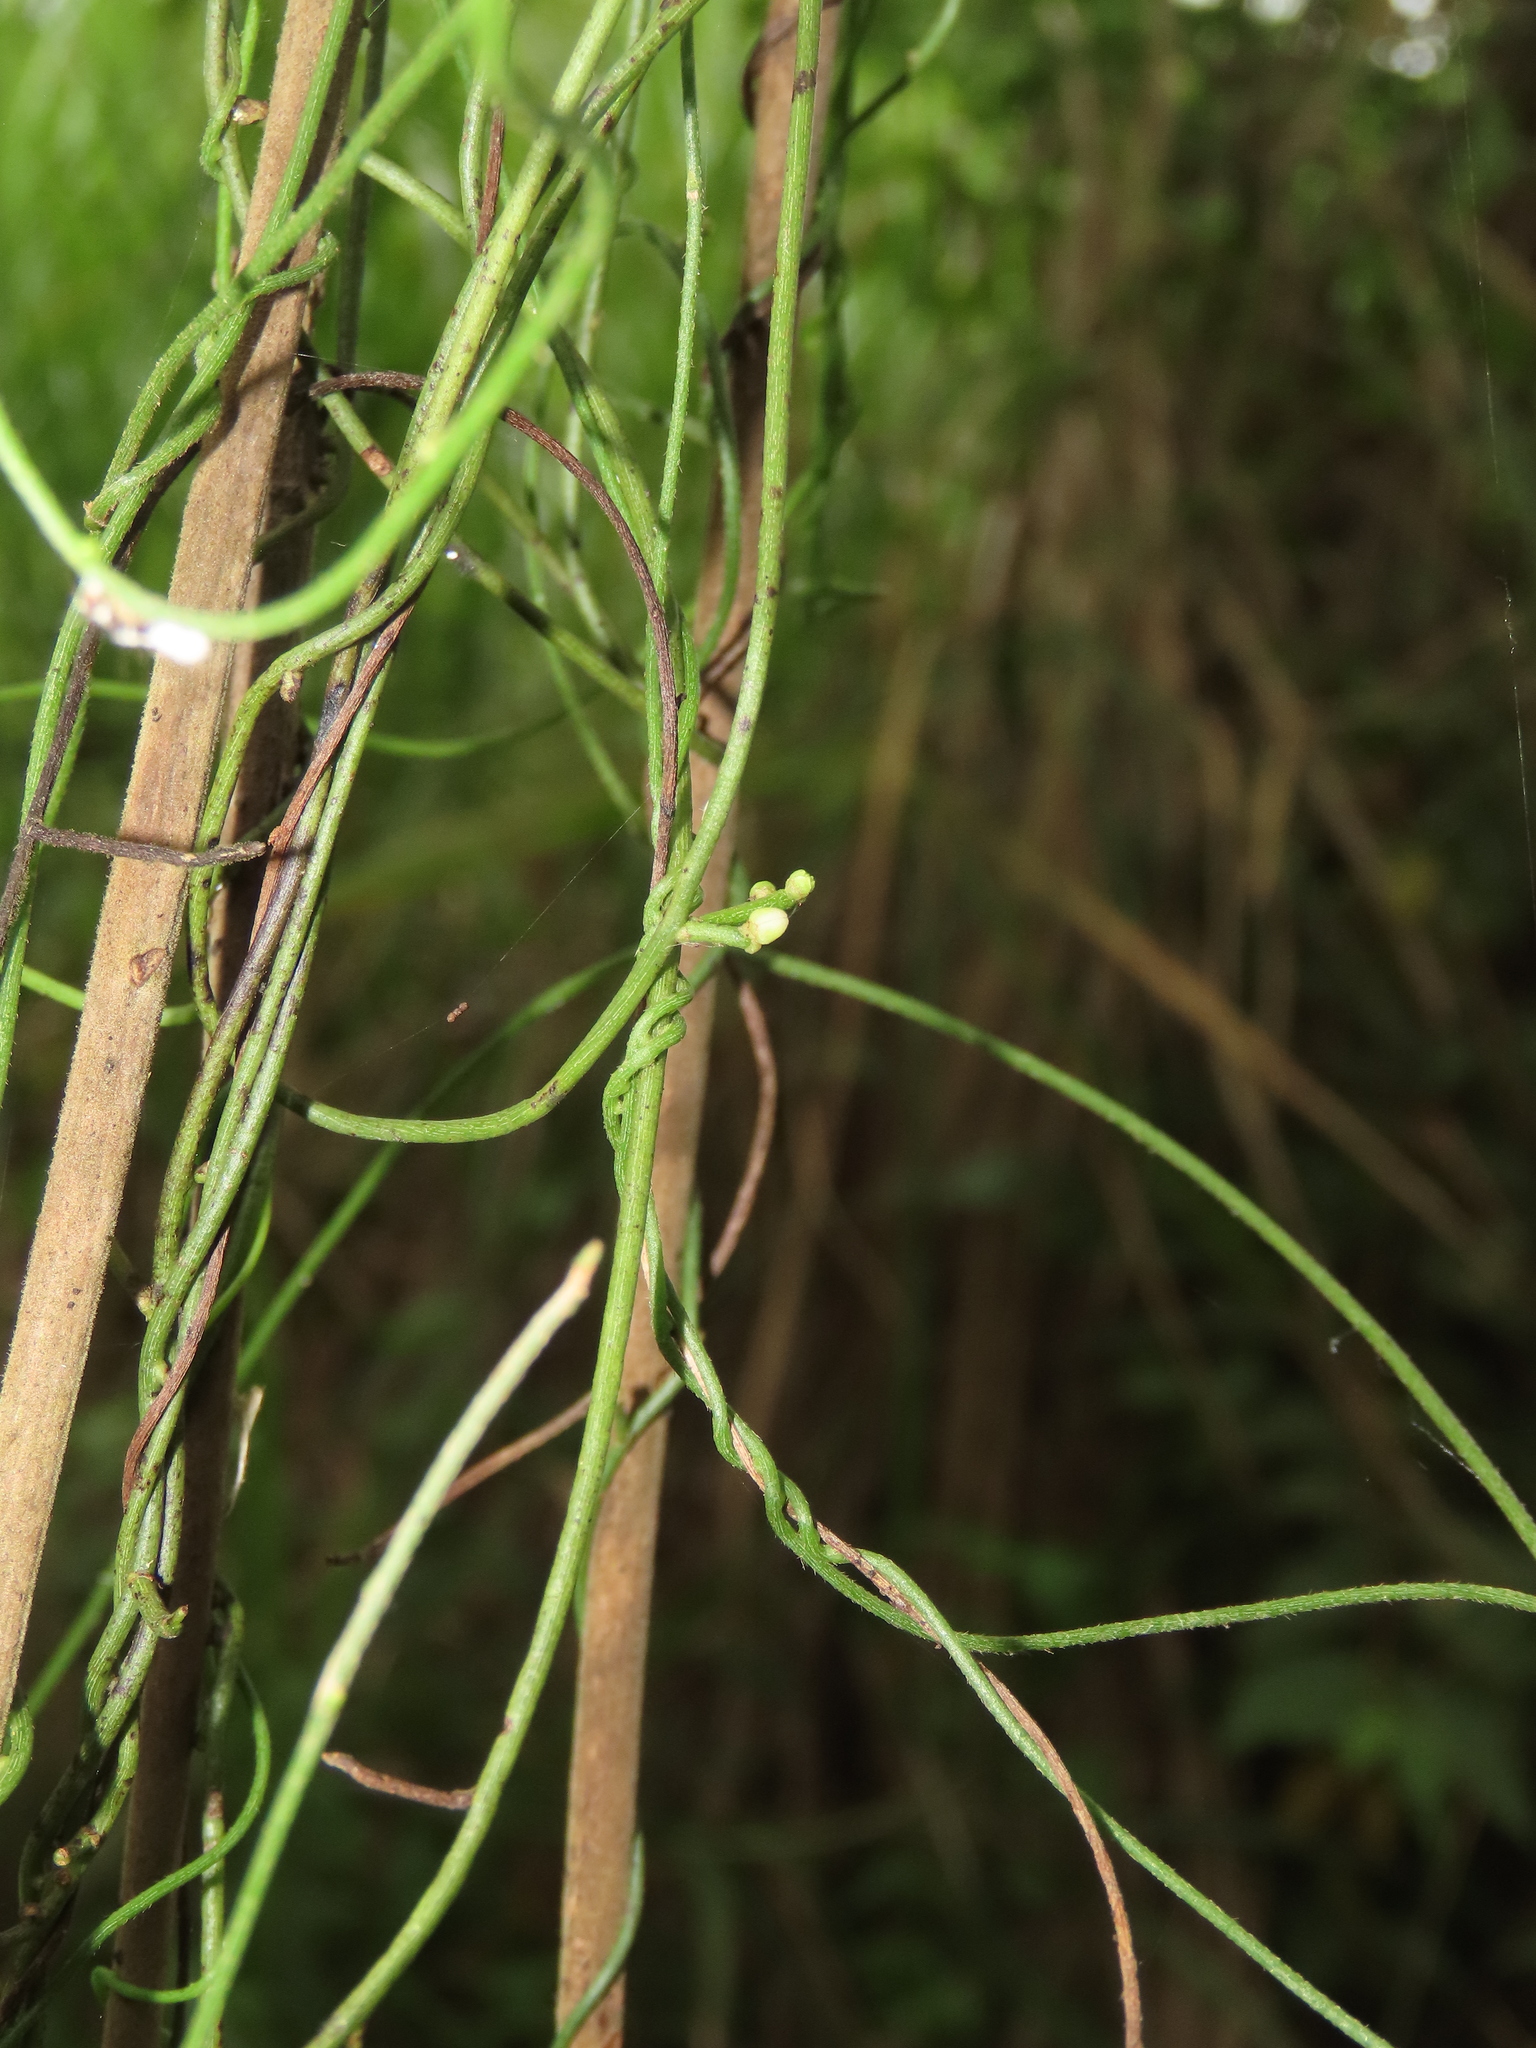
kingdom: Plantae
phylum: Tracheophyta
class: Magnoliopsida
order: Laurales
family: Lauraceae
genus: Cassytha
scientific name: Cassytha filiformis
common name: Dodder-laurel
